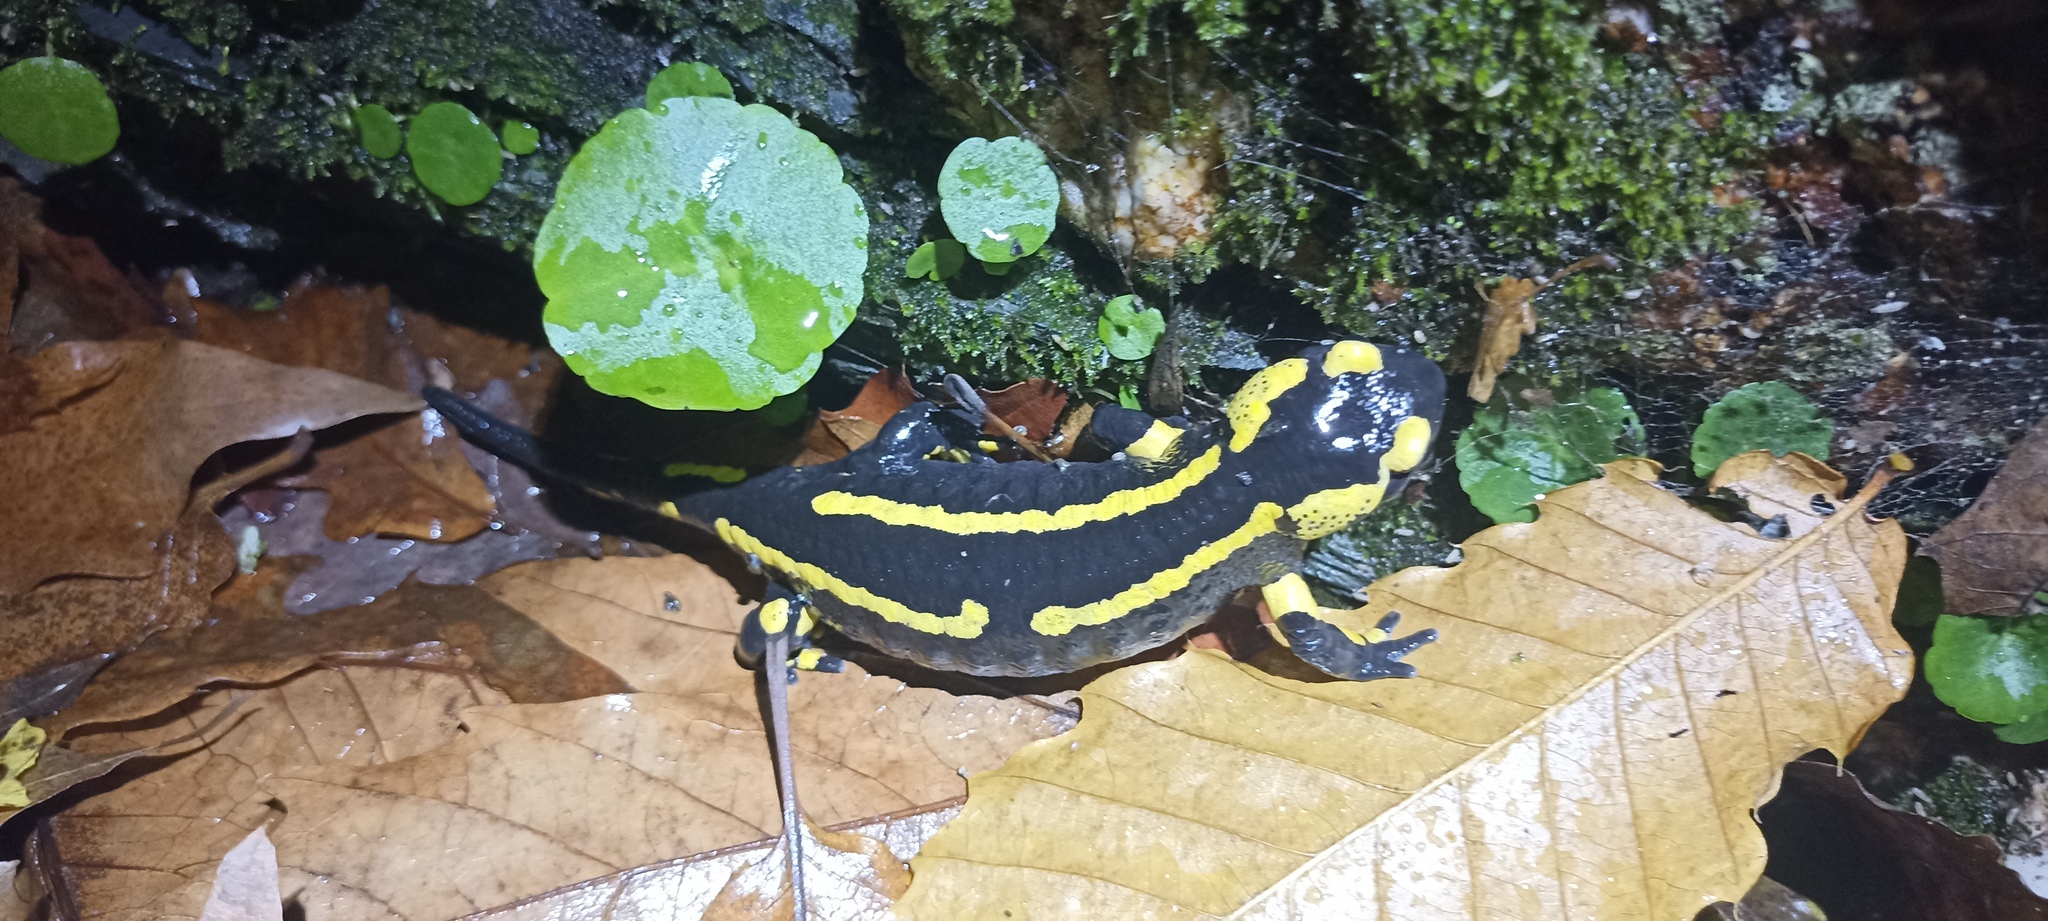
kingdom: Animalia
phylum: Chordata
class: Amphibia
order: Caudata
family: Salamandridae
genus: Salamandra
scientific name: Salamandra salamandra
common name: Fire salamander
